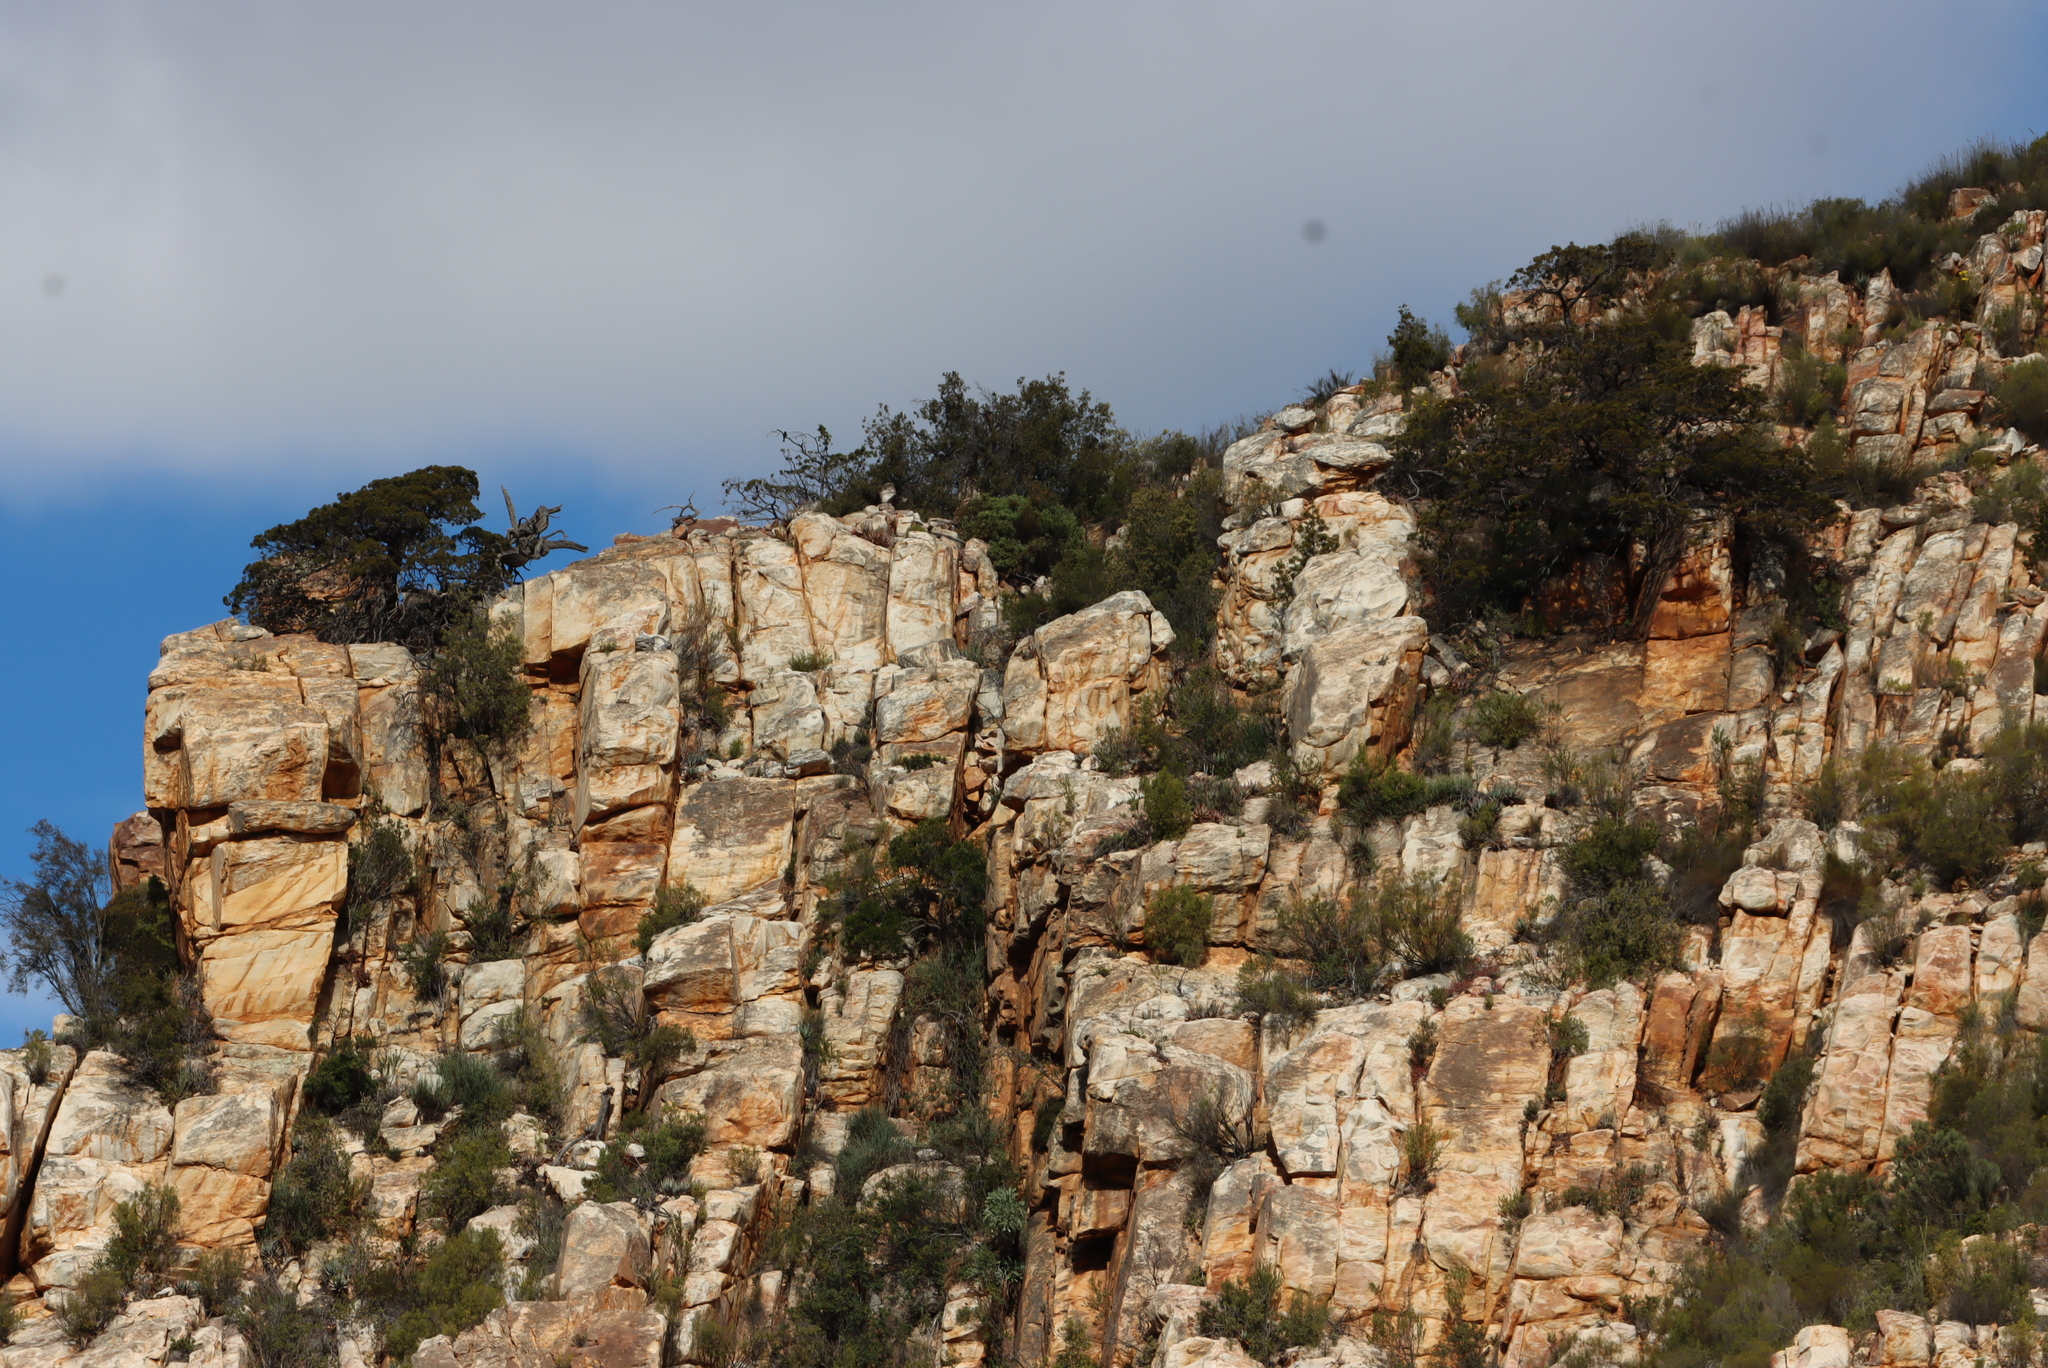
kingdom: Plantae
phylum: Tracheophyta
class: Pinopsida
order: Pinales
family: Cupressaceae
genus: Widdringtonia
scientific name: Widdringtonia schwarzii
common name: Baviaans cedar
